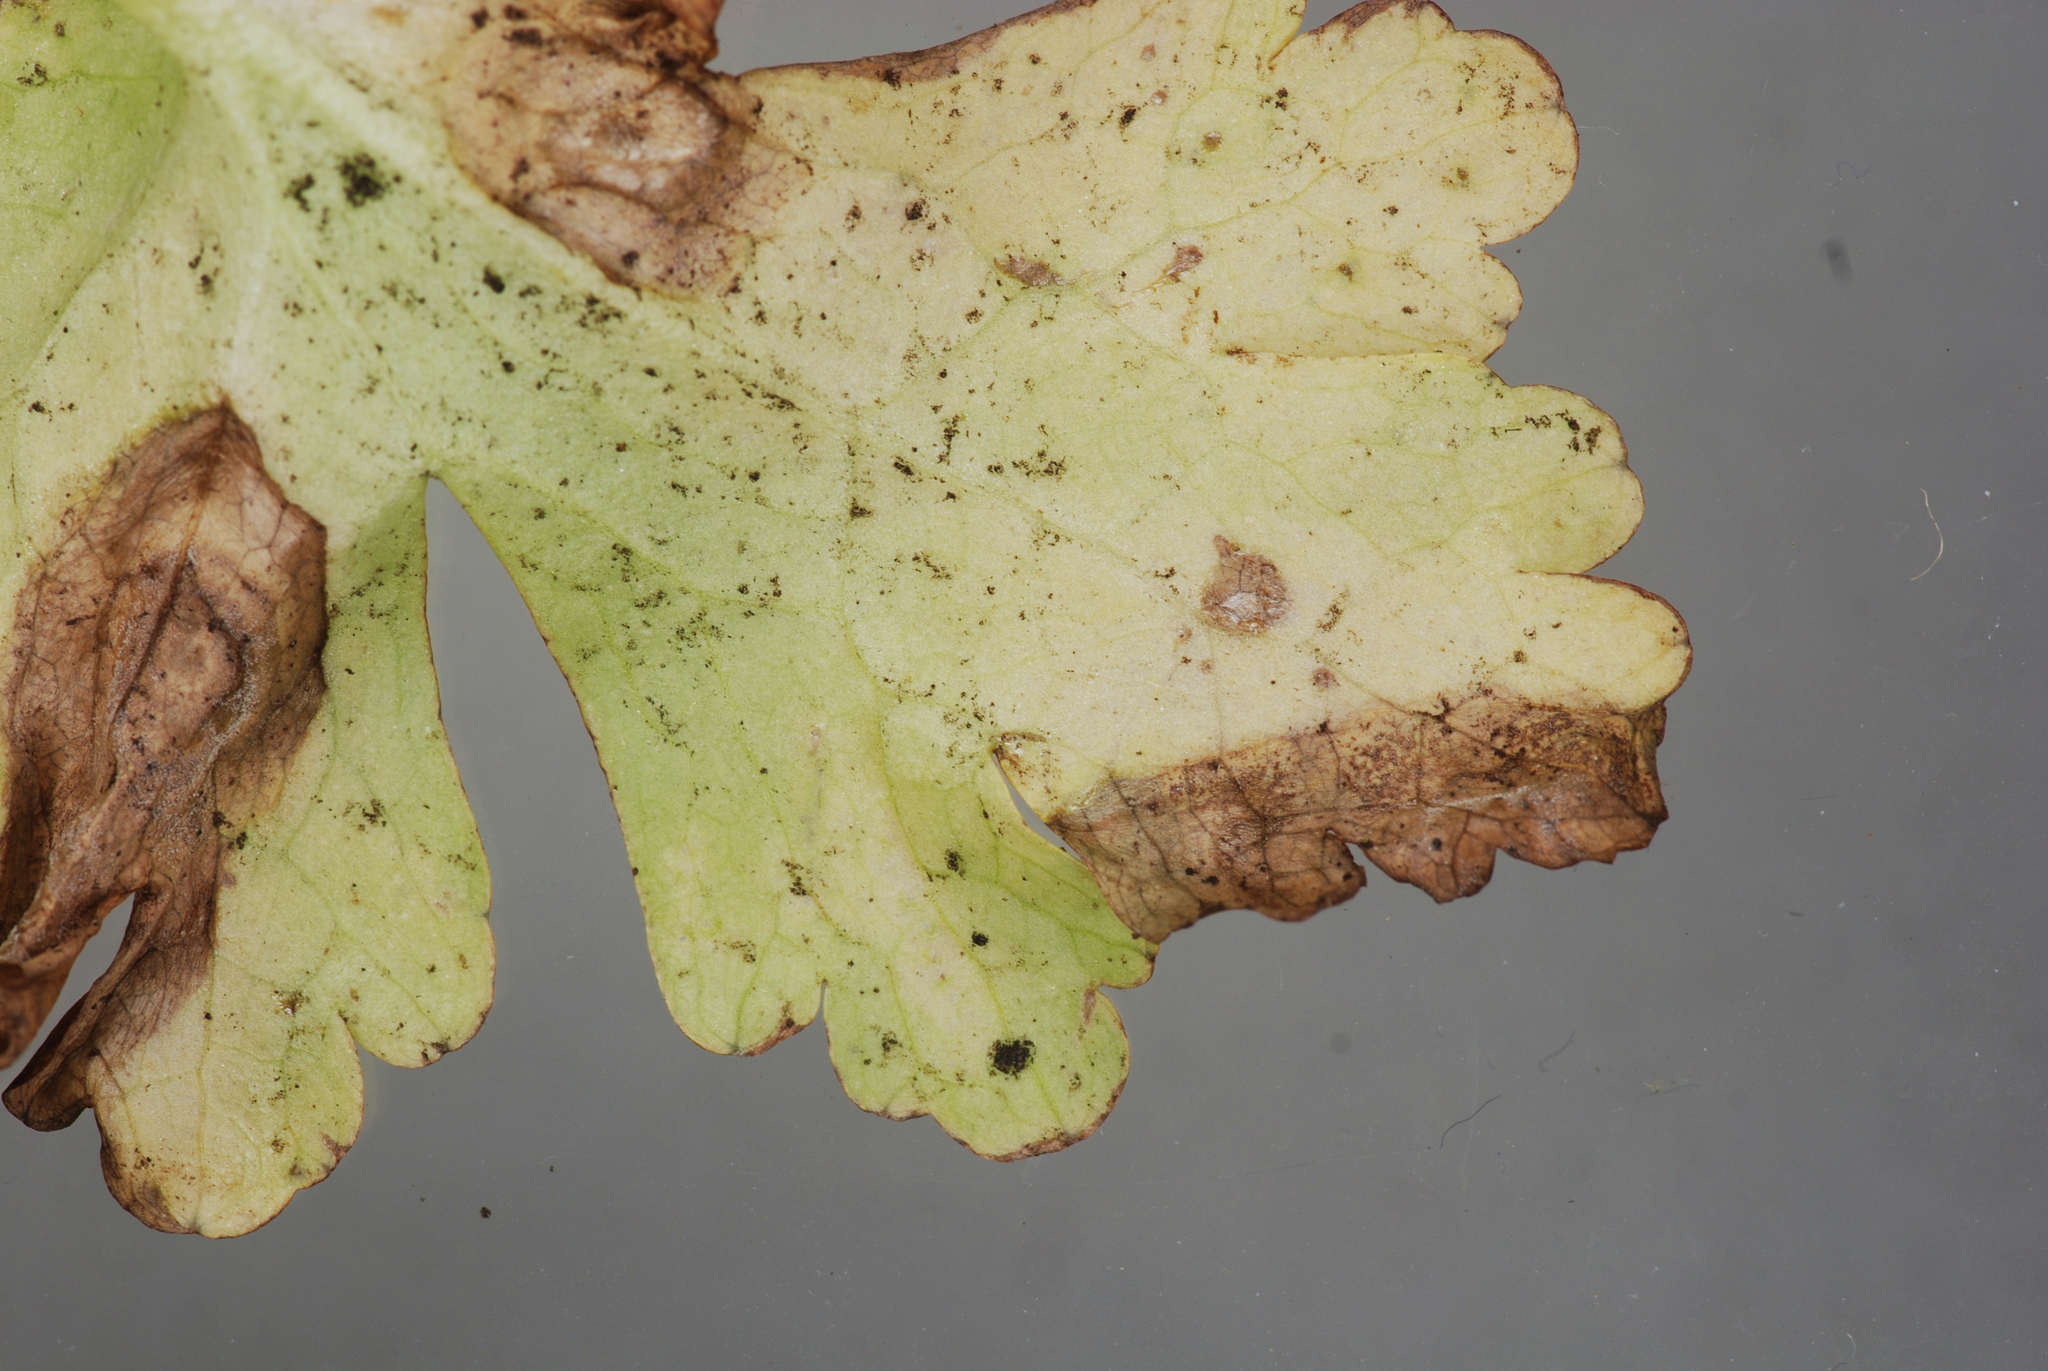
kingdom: Fungi
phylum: Ascomycota
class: Dothideomycetes
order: Mycosphaerellales
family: Mycosphaerellaceae
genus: Ramularia
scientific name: Ramularia simplex
